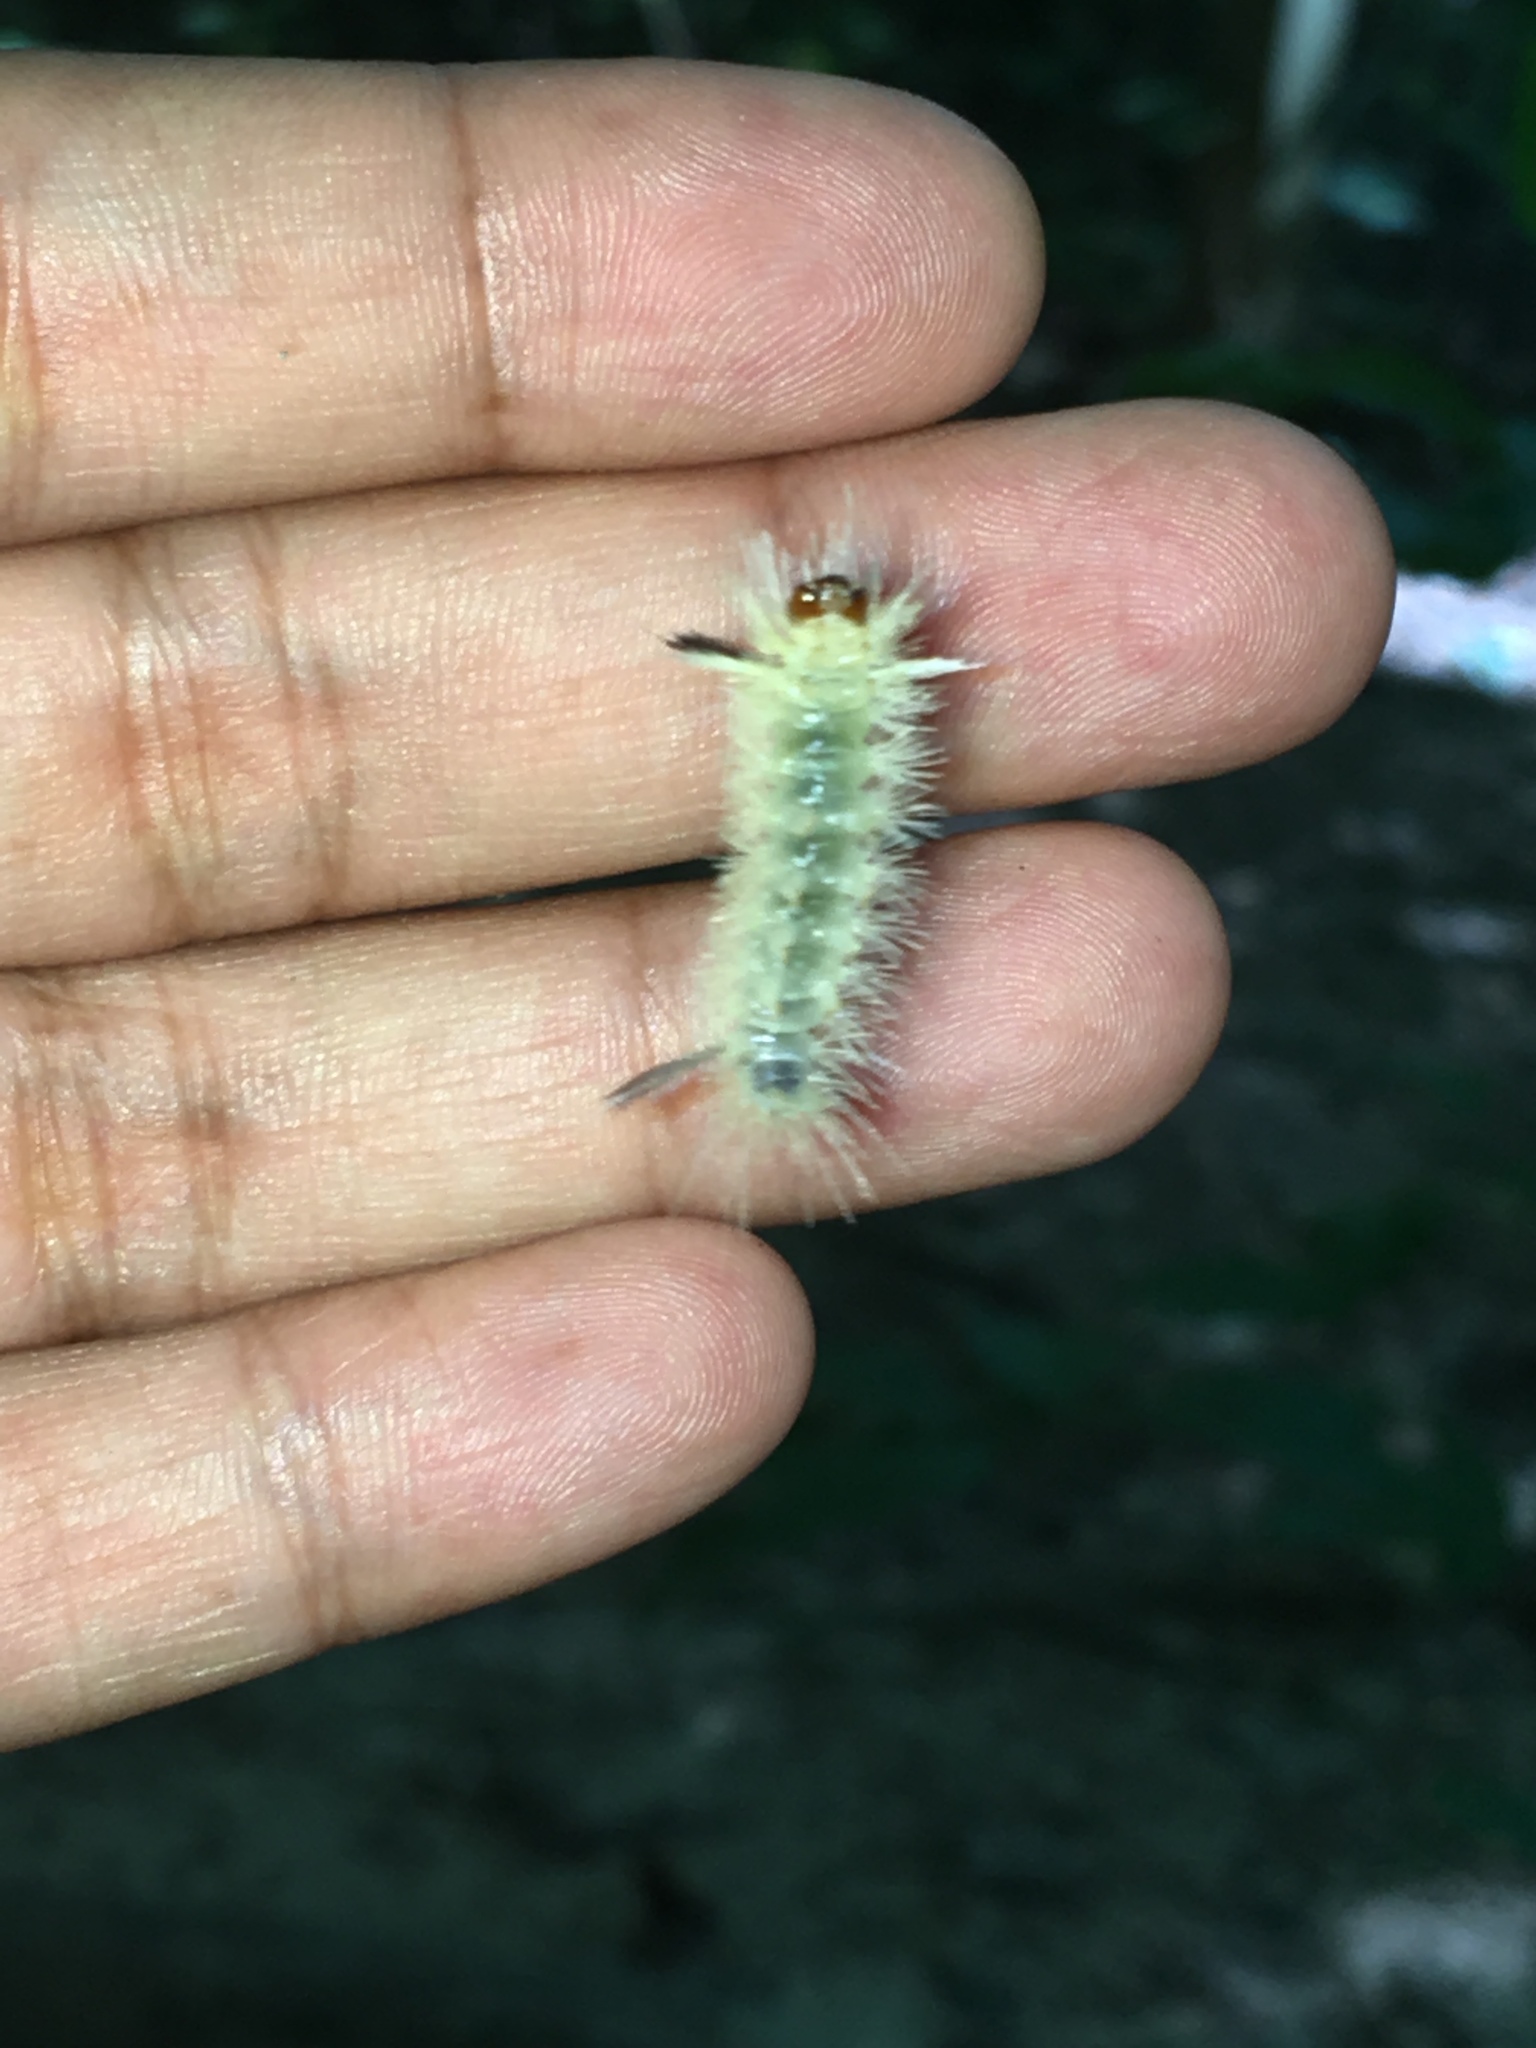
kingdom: Animalia
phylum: Arthropoda
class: Insecta
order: Lepidoptera
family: Erebidae
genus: Halysidota
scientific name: Halysidota tessellaris
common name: Banded tussock moth
